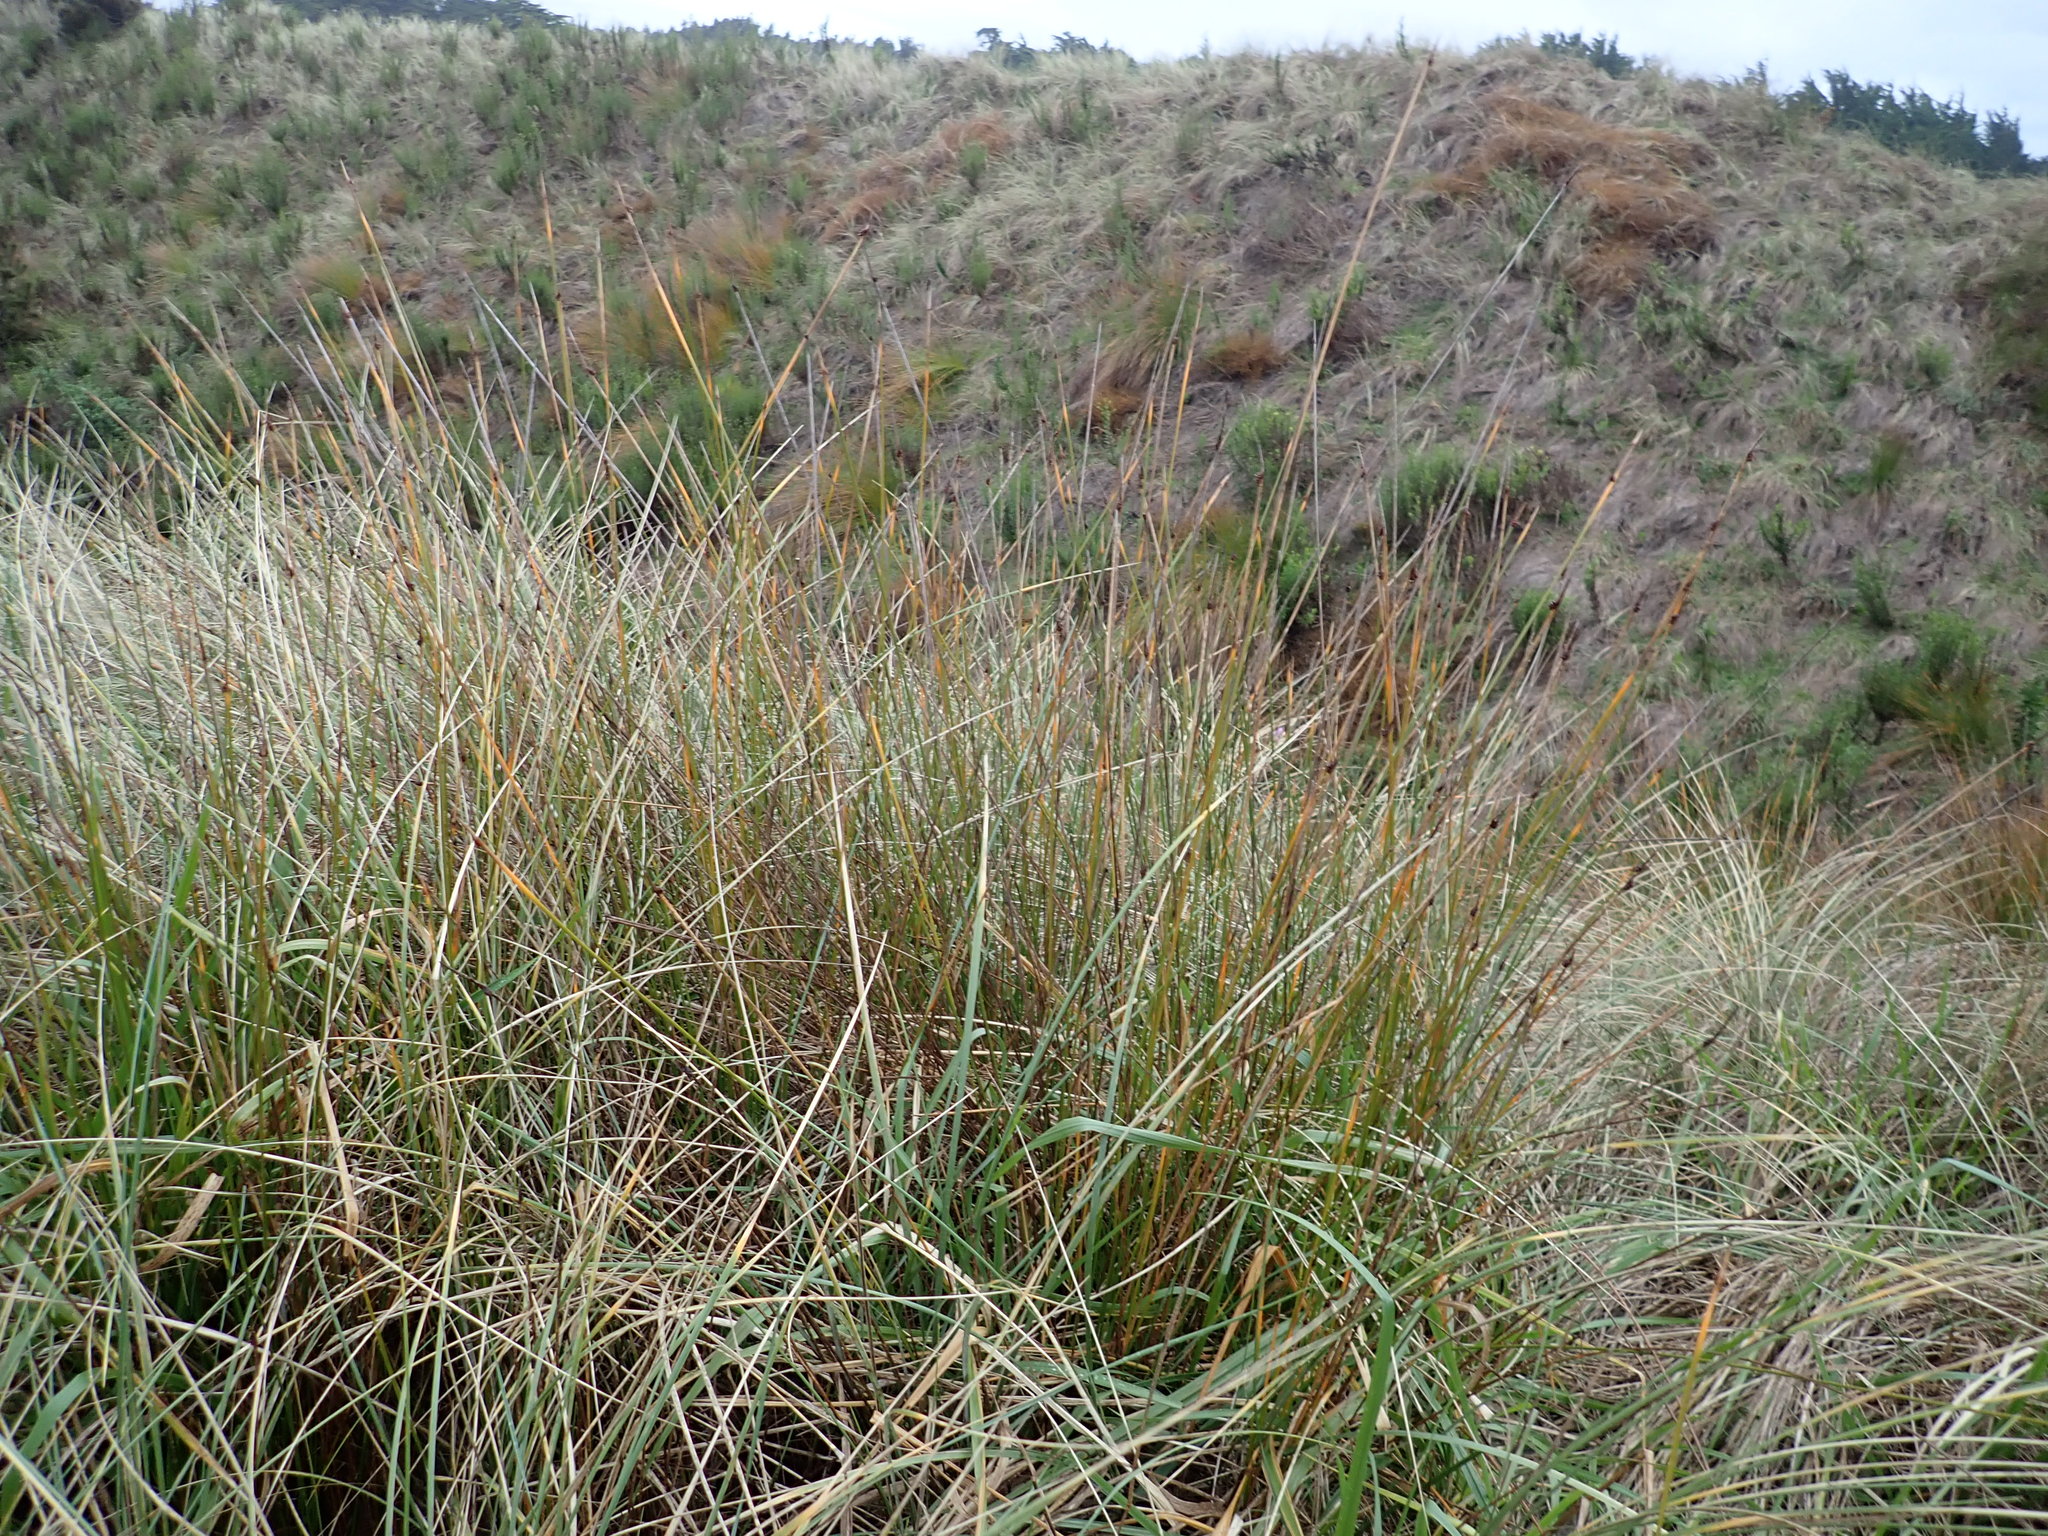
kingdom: Plantae
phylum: Tracheophyta
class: Liliopsida
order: Poales
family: Cyperaceae
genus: Ficinia
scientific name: Ficinia nodosa
